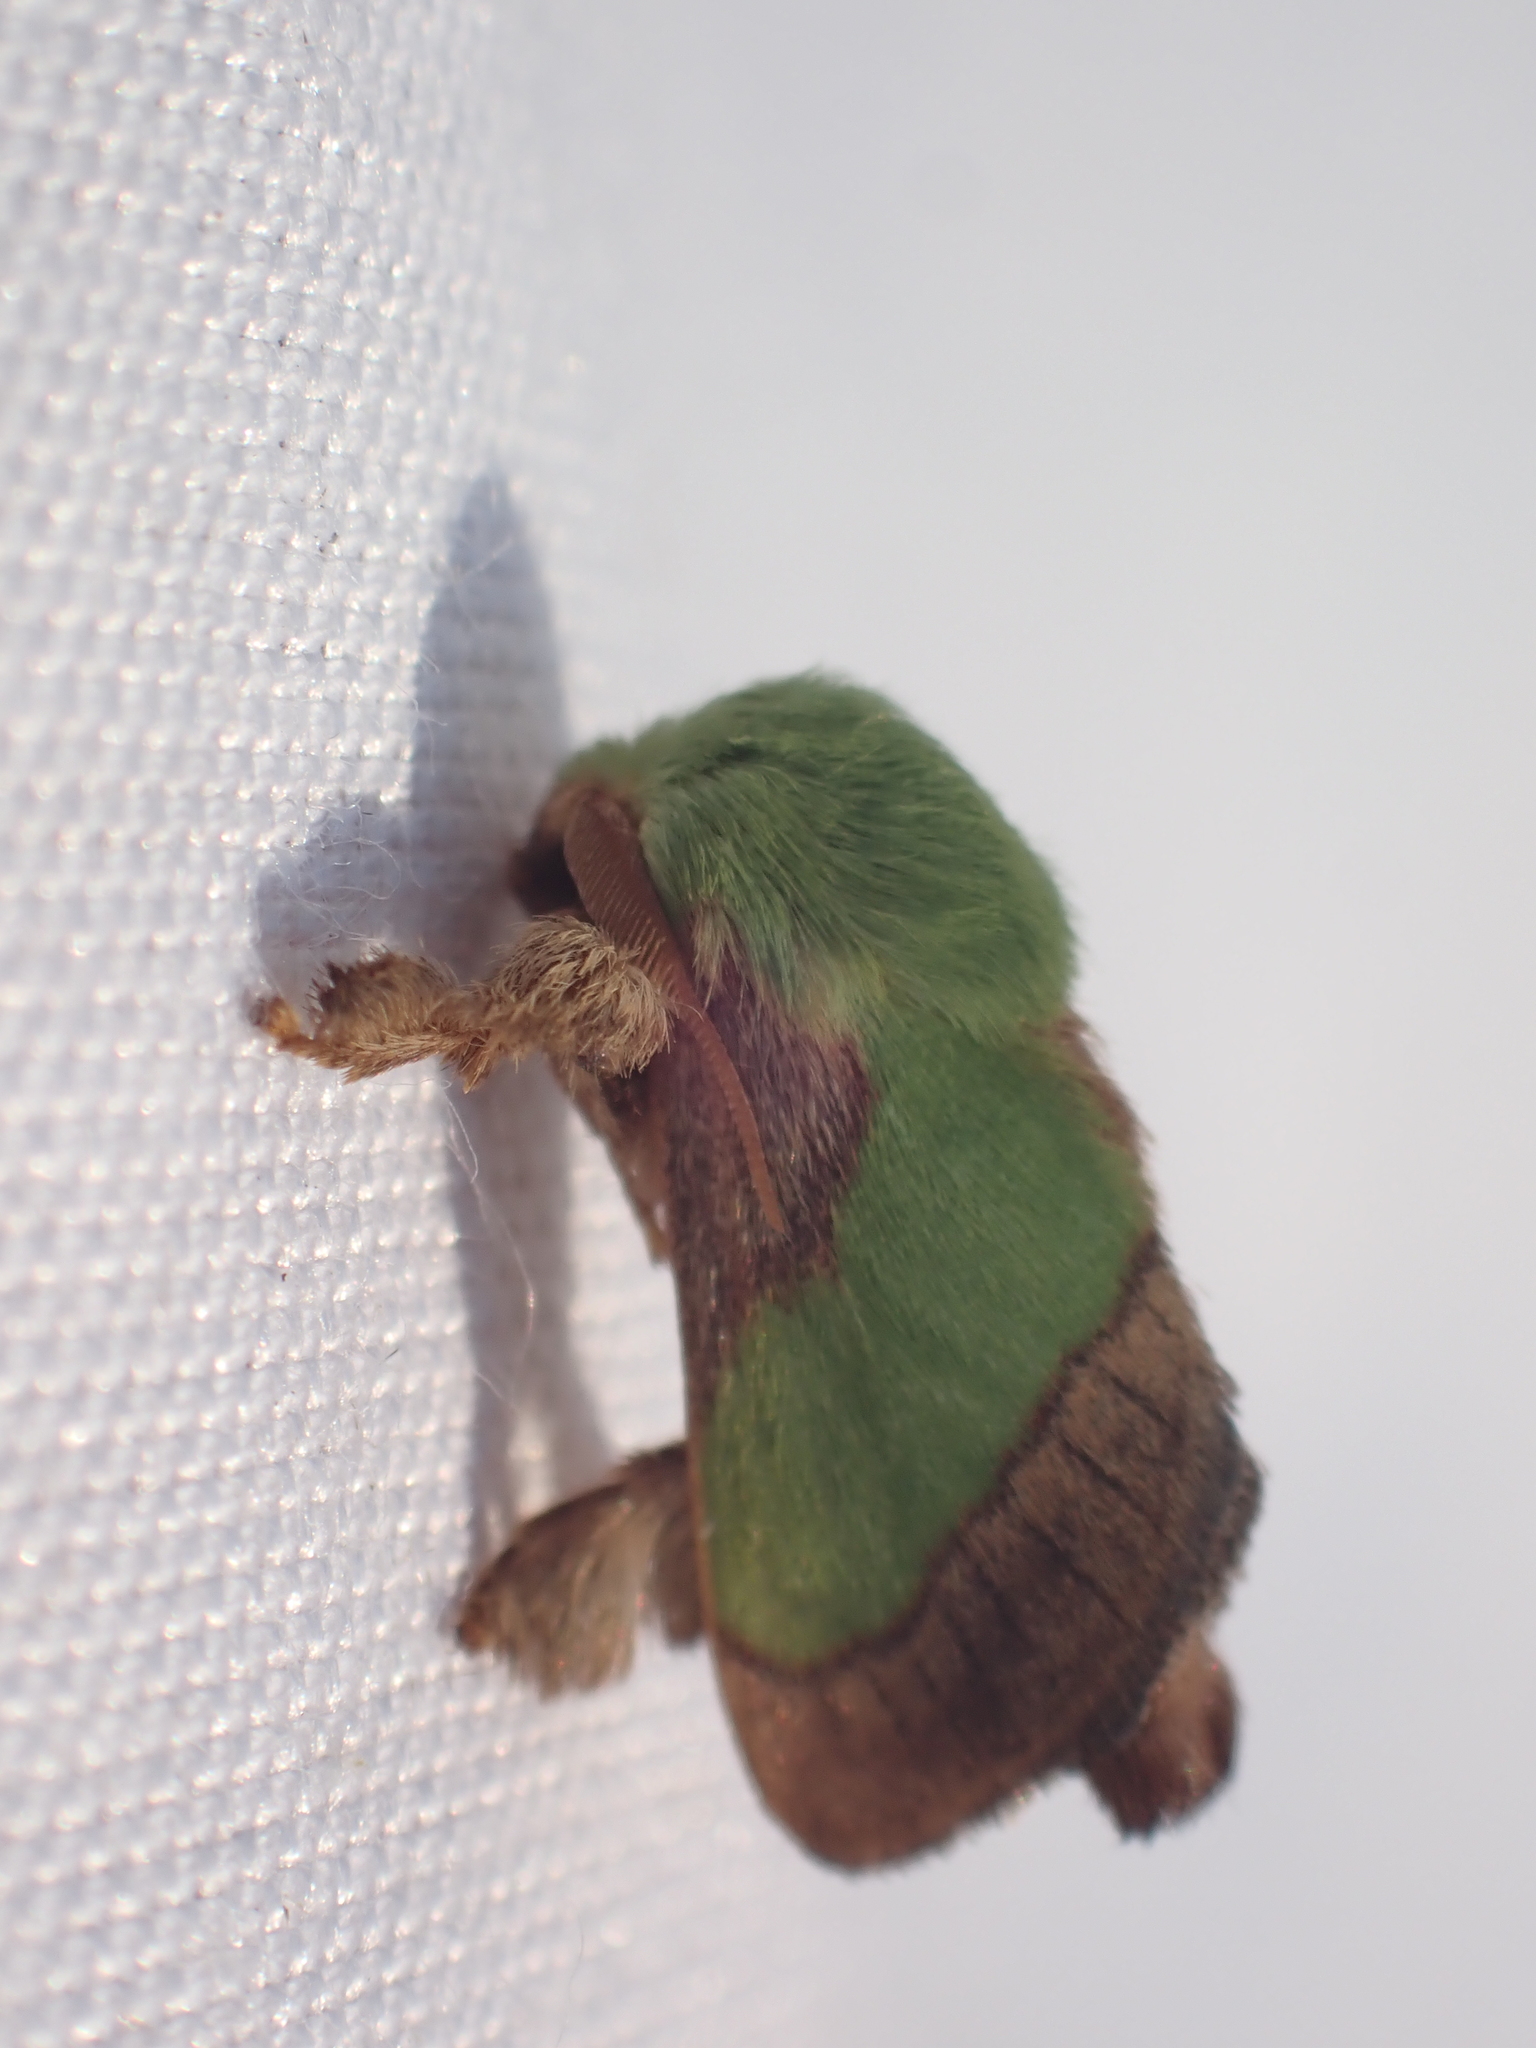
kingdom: Animalia
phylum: Arthropoda
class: Insecta
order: Lepidoptera
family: Limacodidae
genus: Parasa
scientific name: Parasa chloris
